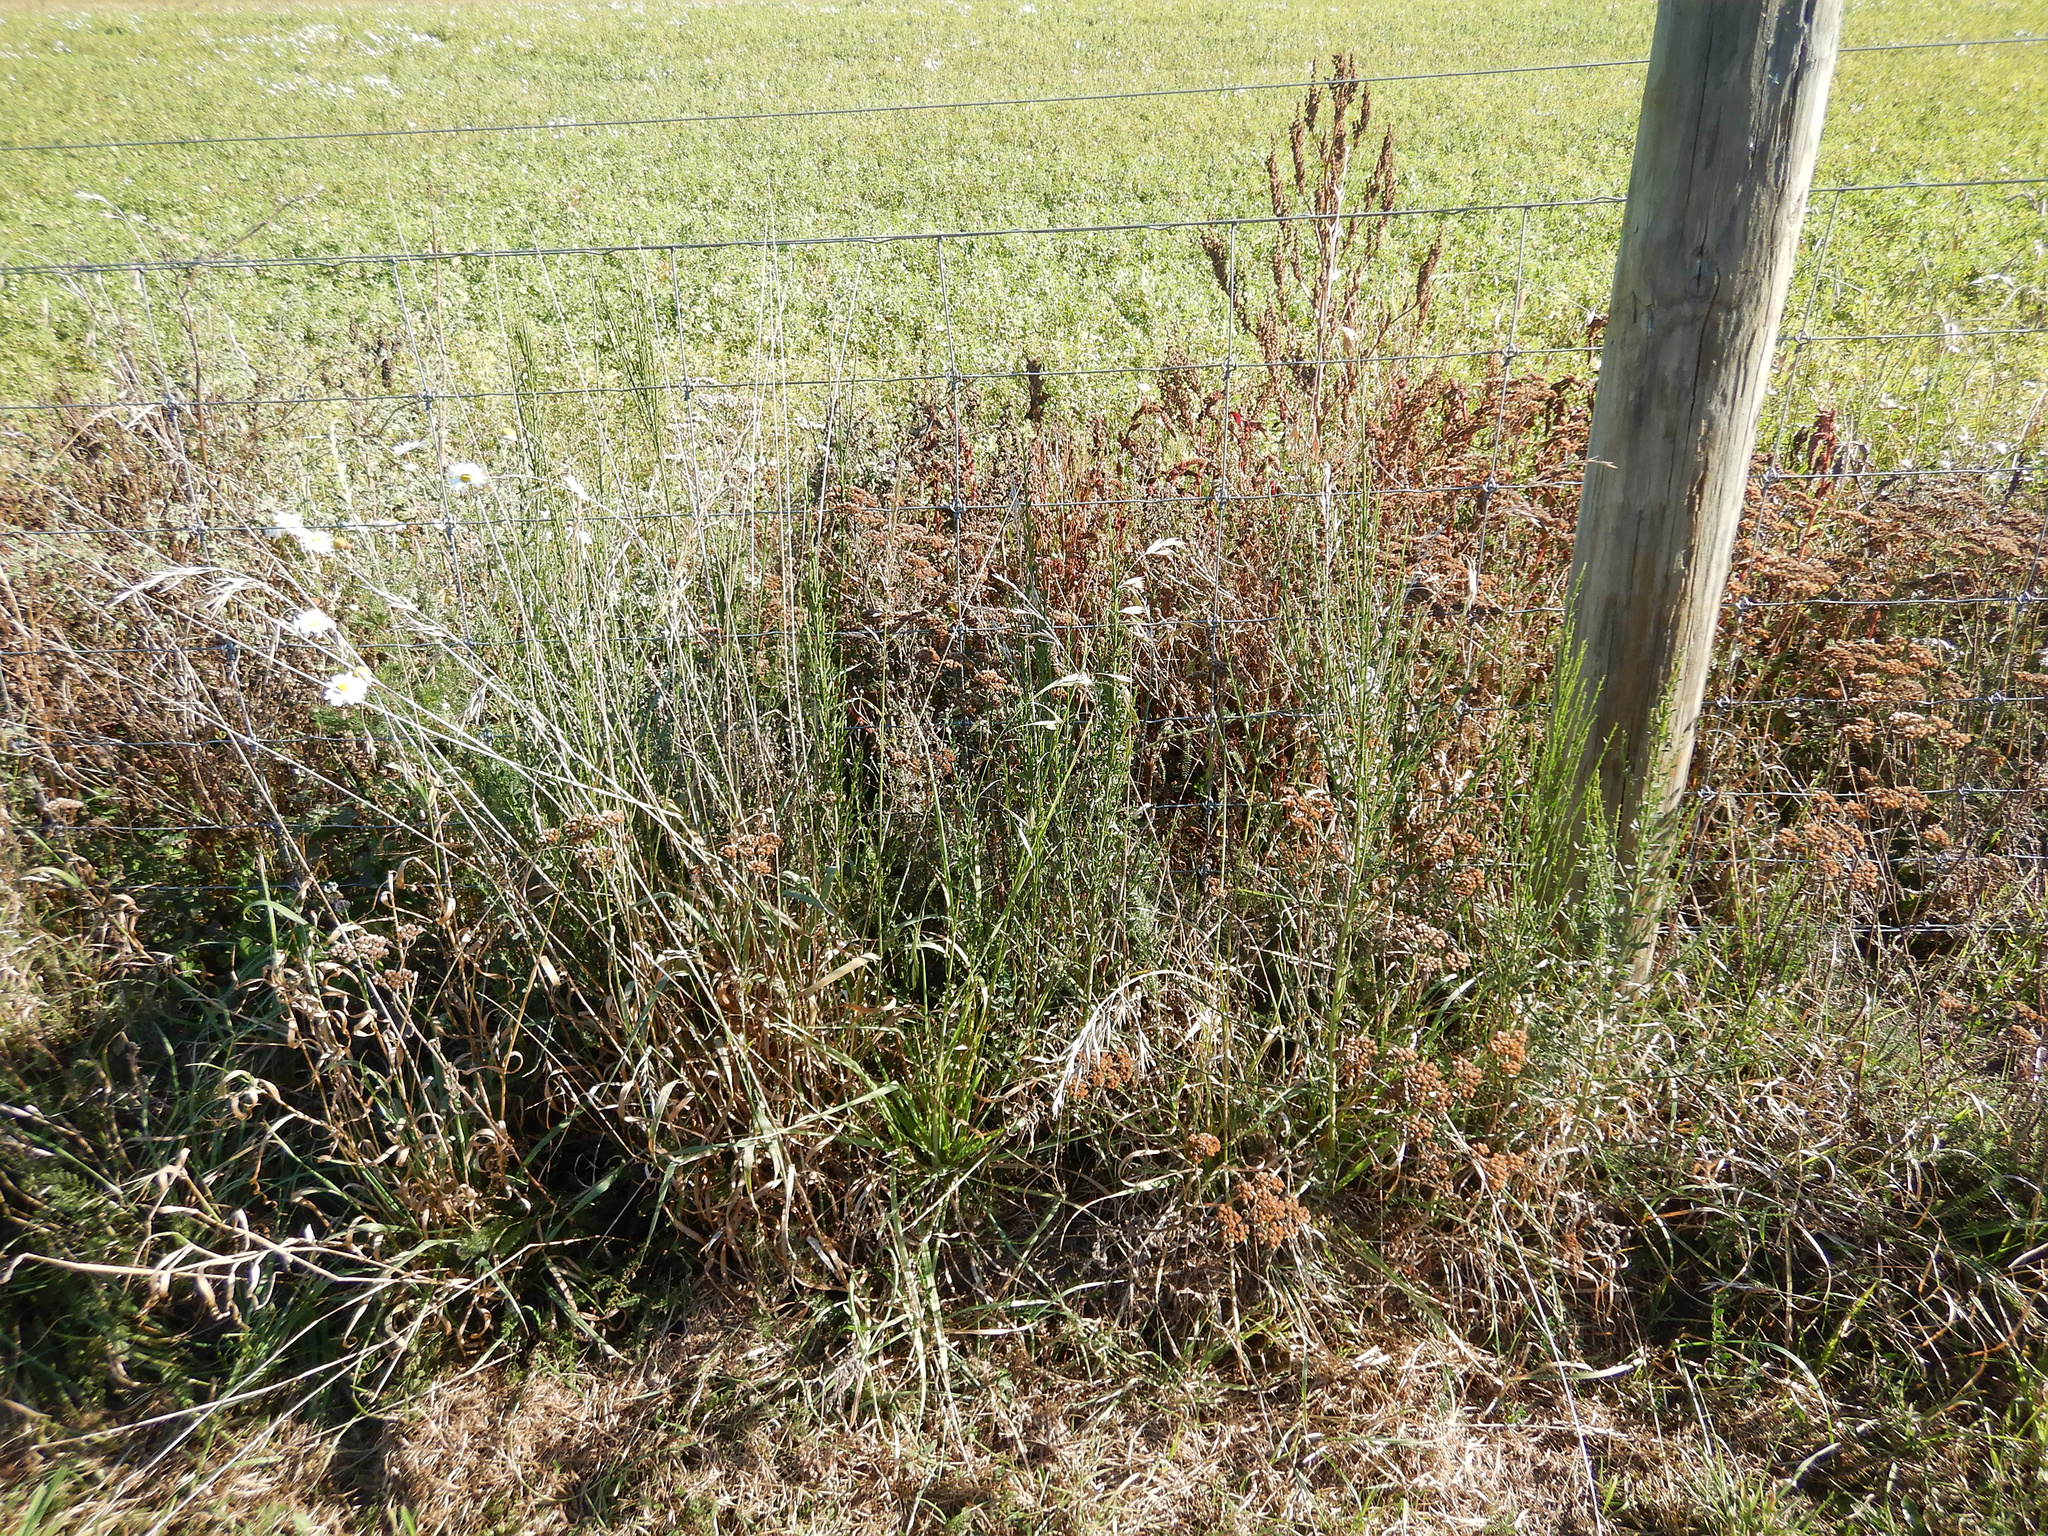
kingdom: Plantae
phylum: Tracheophyta
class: Magnoliopsida
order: Fabales
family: Fabaceae
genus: Cytisus
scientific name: Cytisus scoparius
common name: Scotch broom
